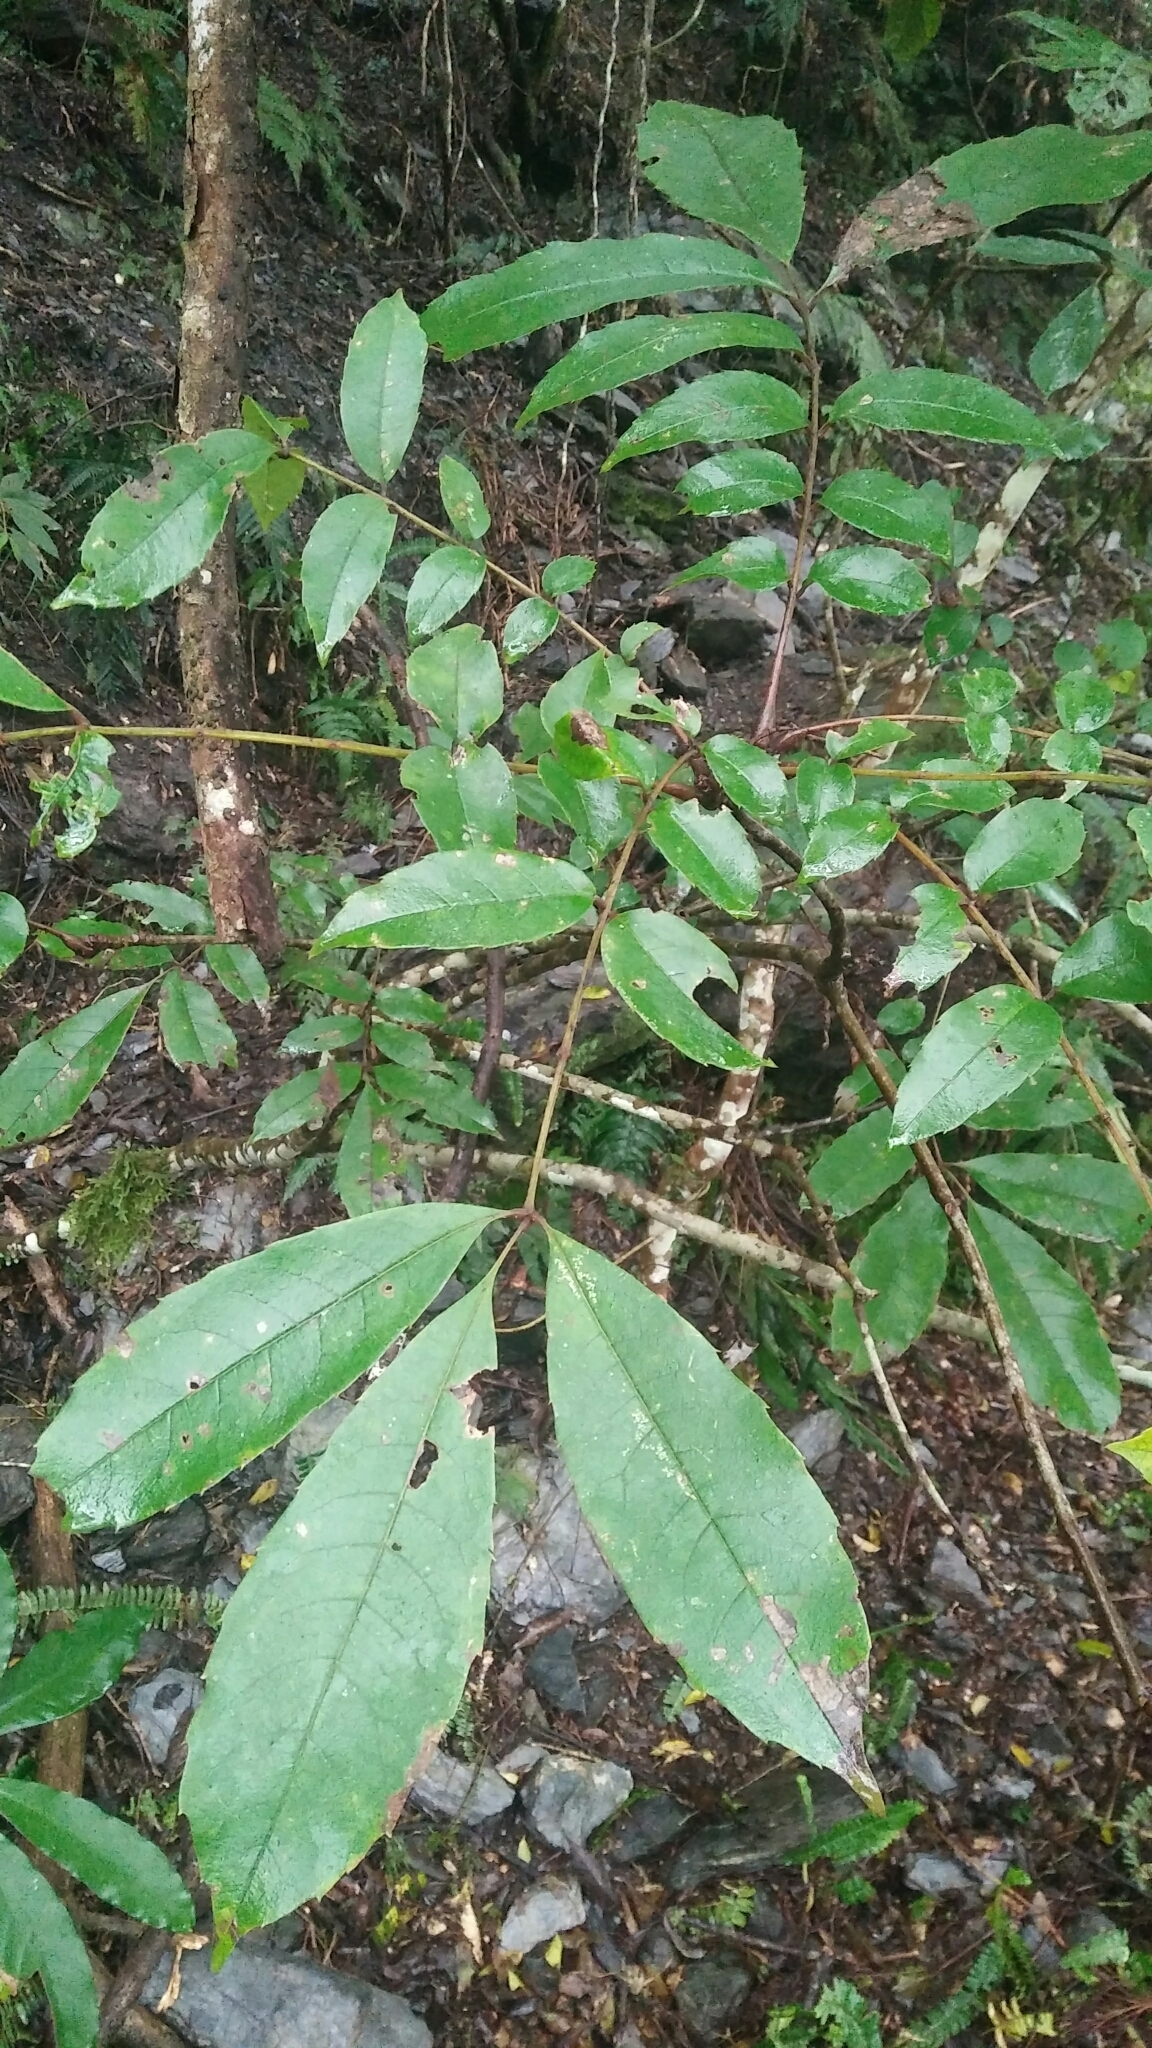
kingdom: Plantae
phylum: Tracheophyta
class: Magnoliopsida
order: Proteales
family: Sabiaceae
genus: Meliosma
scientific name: Meliosma rhoifolia
